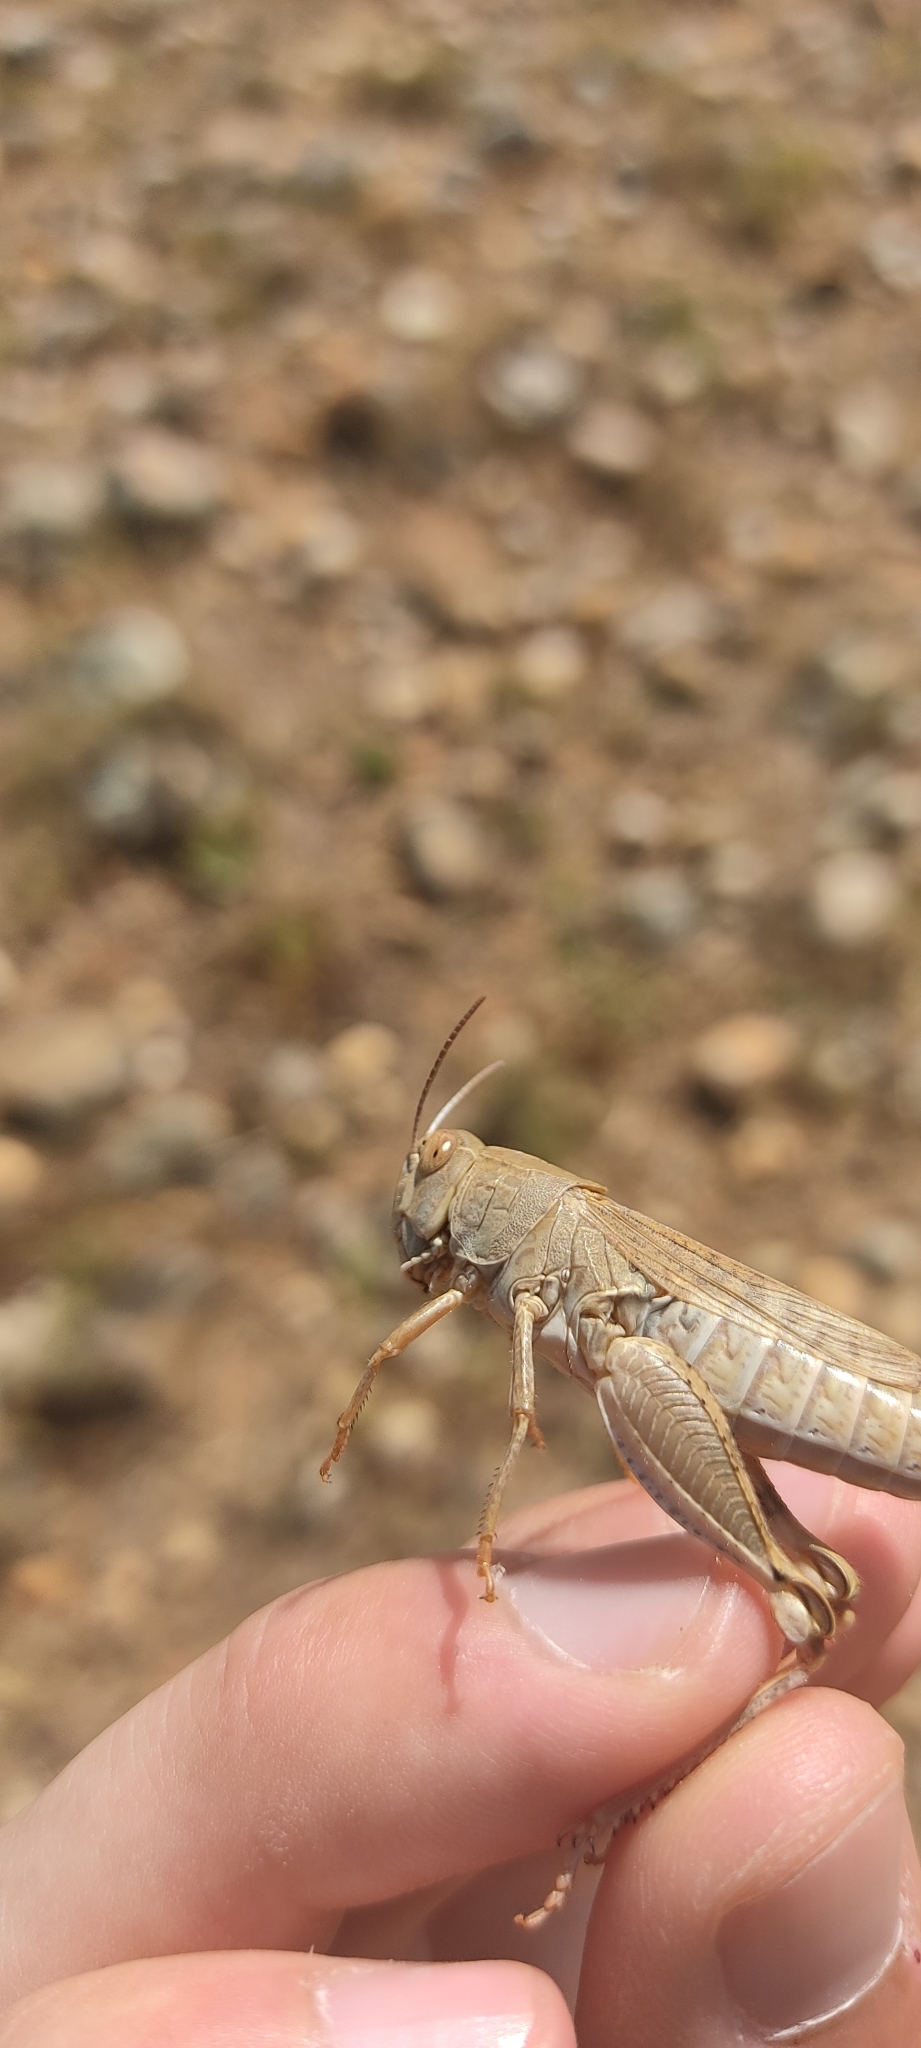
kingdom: Animalia
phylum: Arthropoda
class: Insecta
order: Orthoptera
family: Acrididae
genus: Calliptamus
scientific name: Calliptamus wattenwylianus
